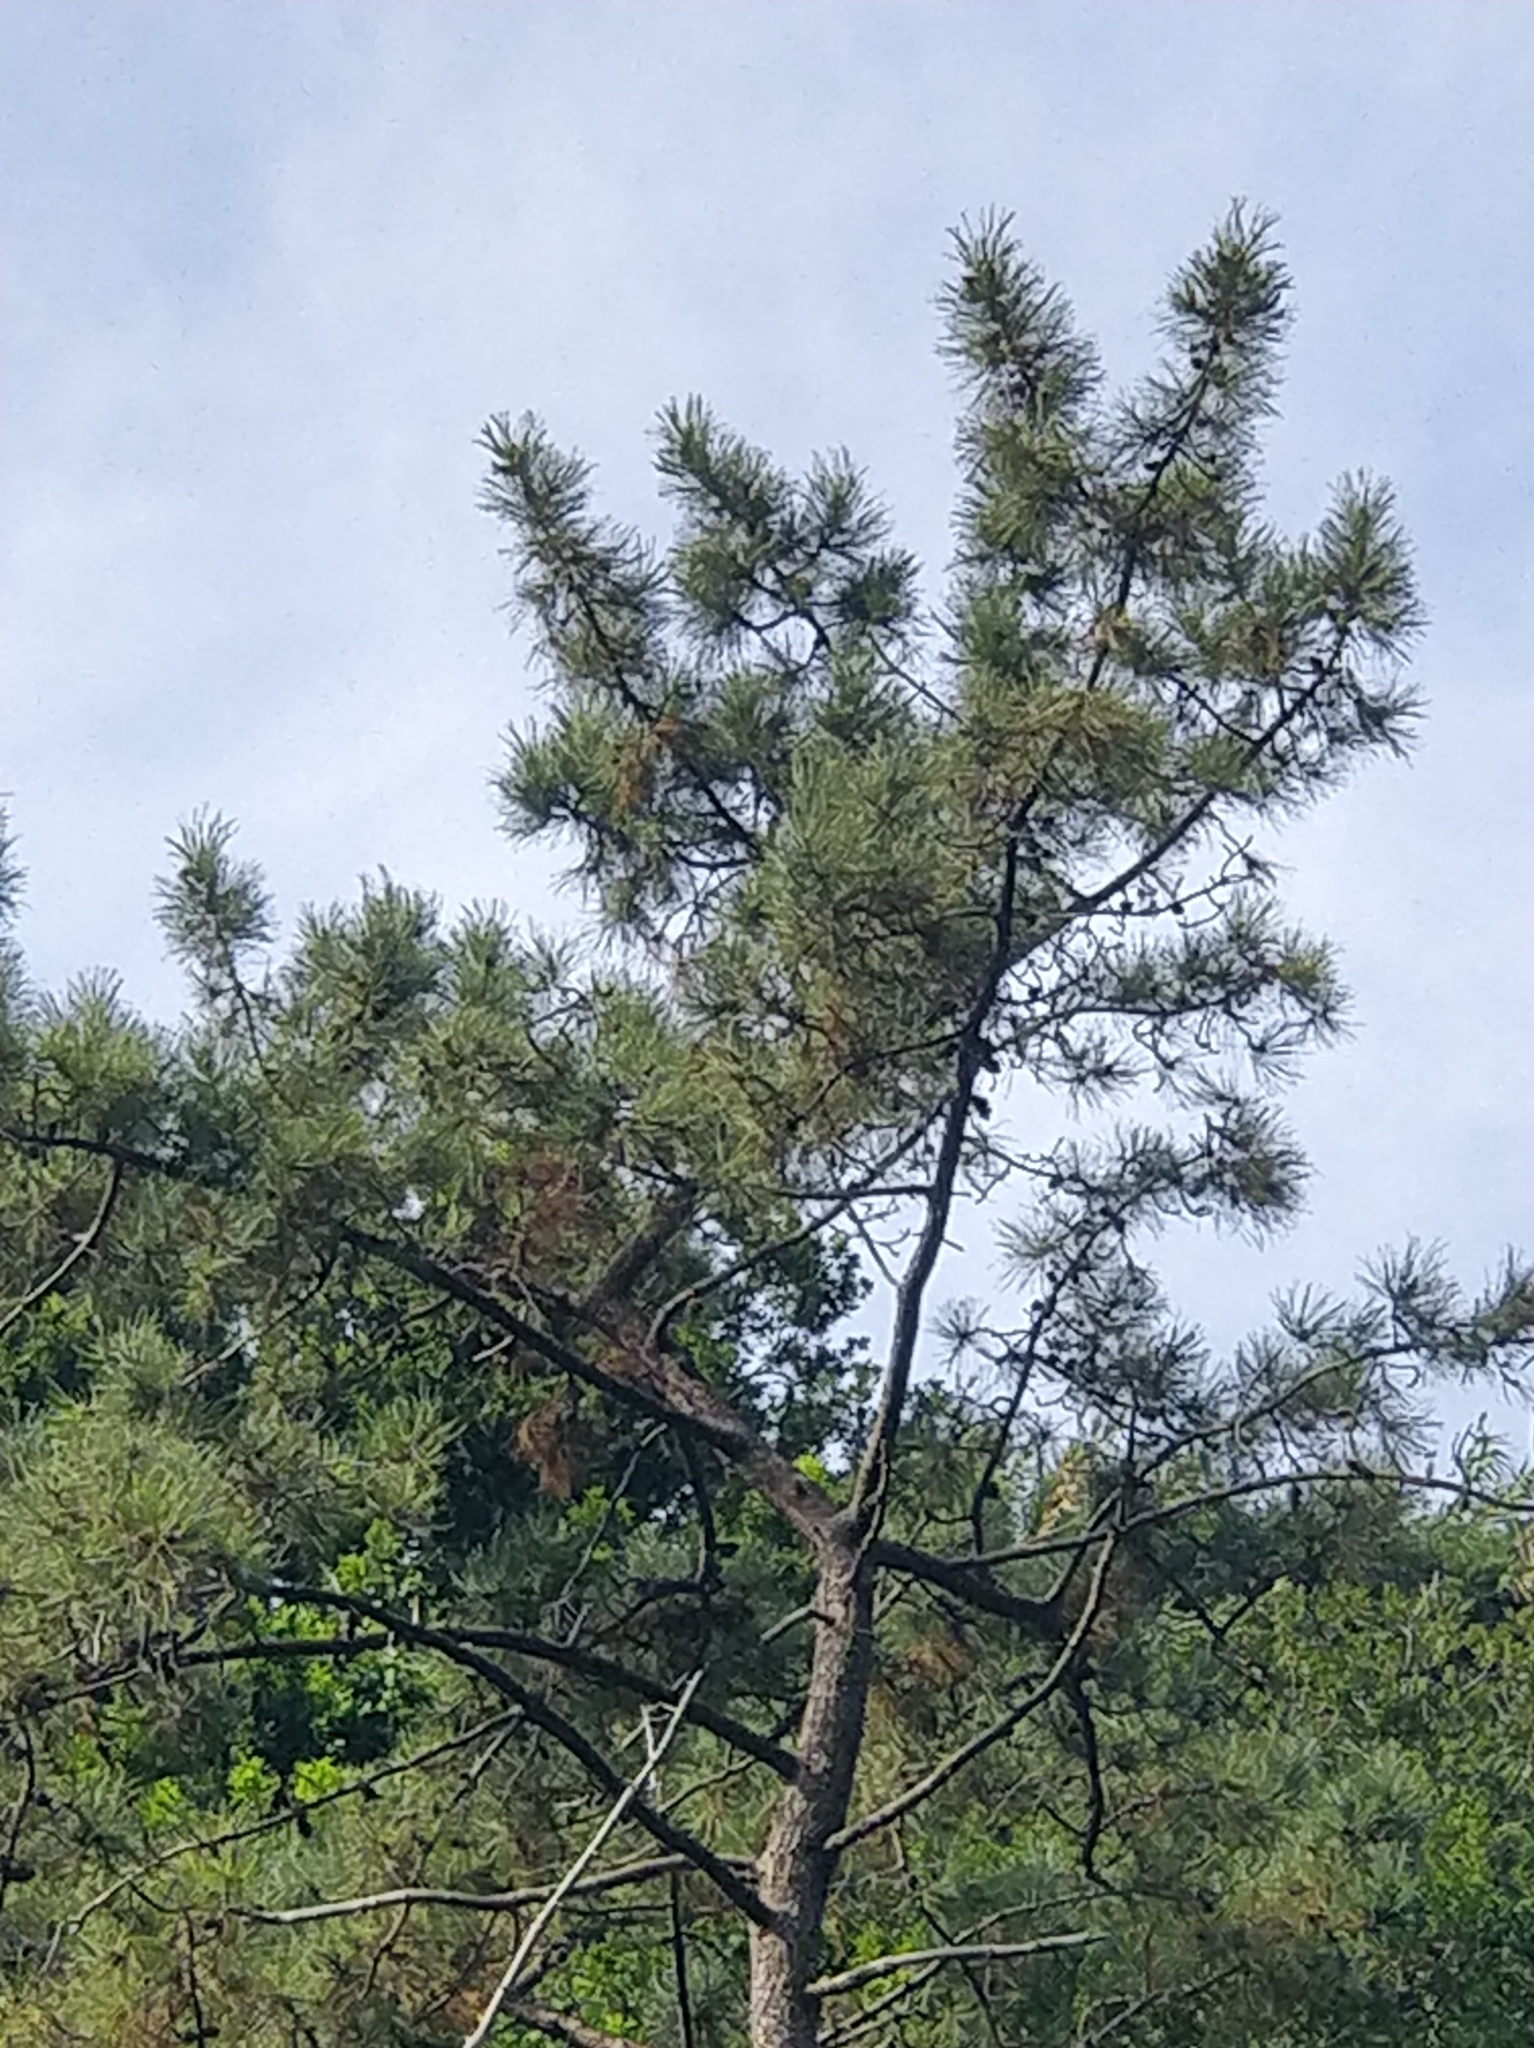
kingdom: Plantae
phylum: Tracheophyta
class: Pinopsida
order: Pinales
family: Pinaceae
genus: Pinus
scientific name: Pinus pinaster
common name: Maritime pine
